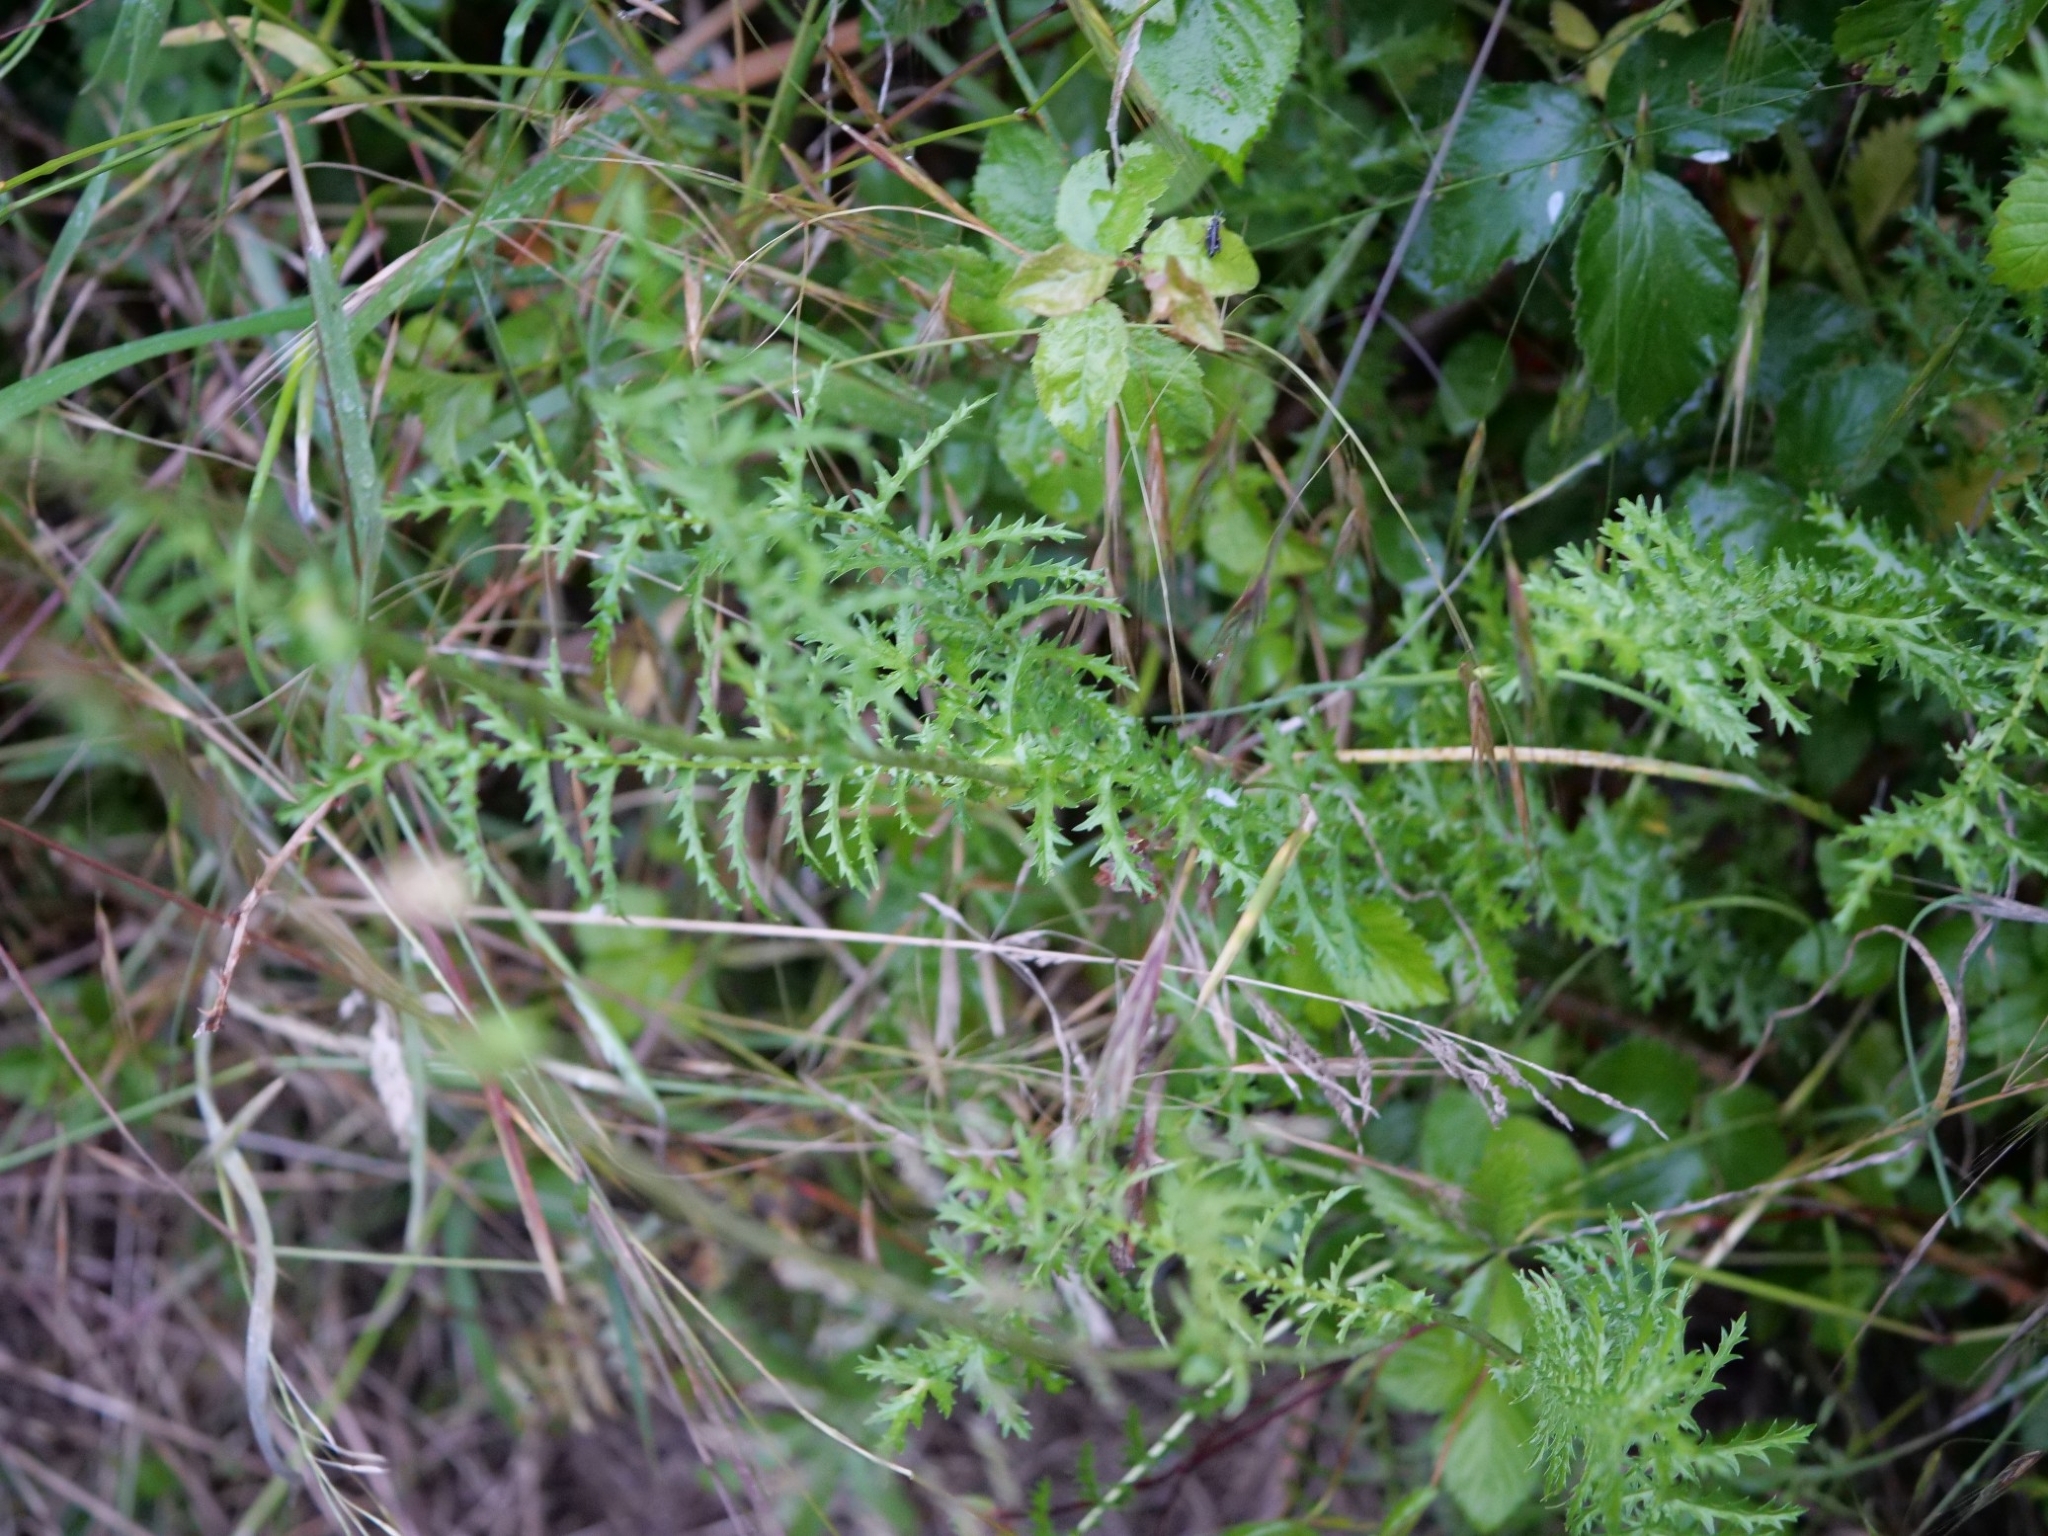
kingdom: Plantae
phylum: Tracheophyta
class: Magnoliopsida
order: Rosales
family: Rosaceae
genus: Filipendula
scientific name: Filipendula vulgaris
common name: Dropwort
